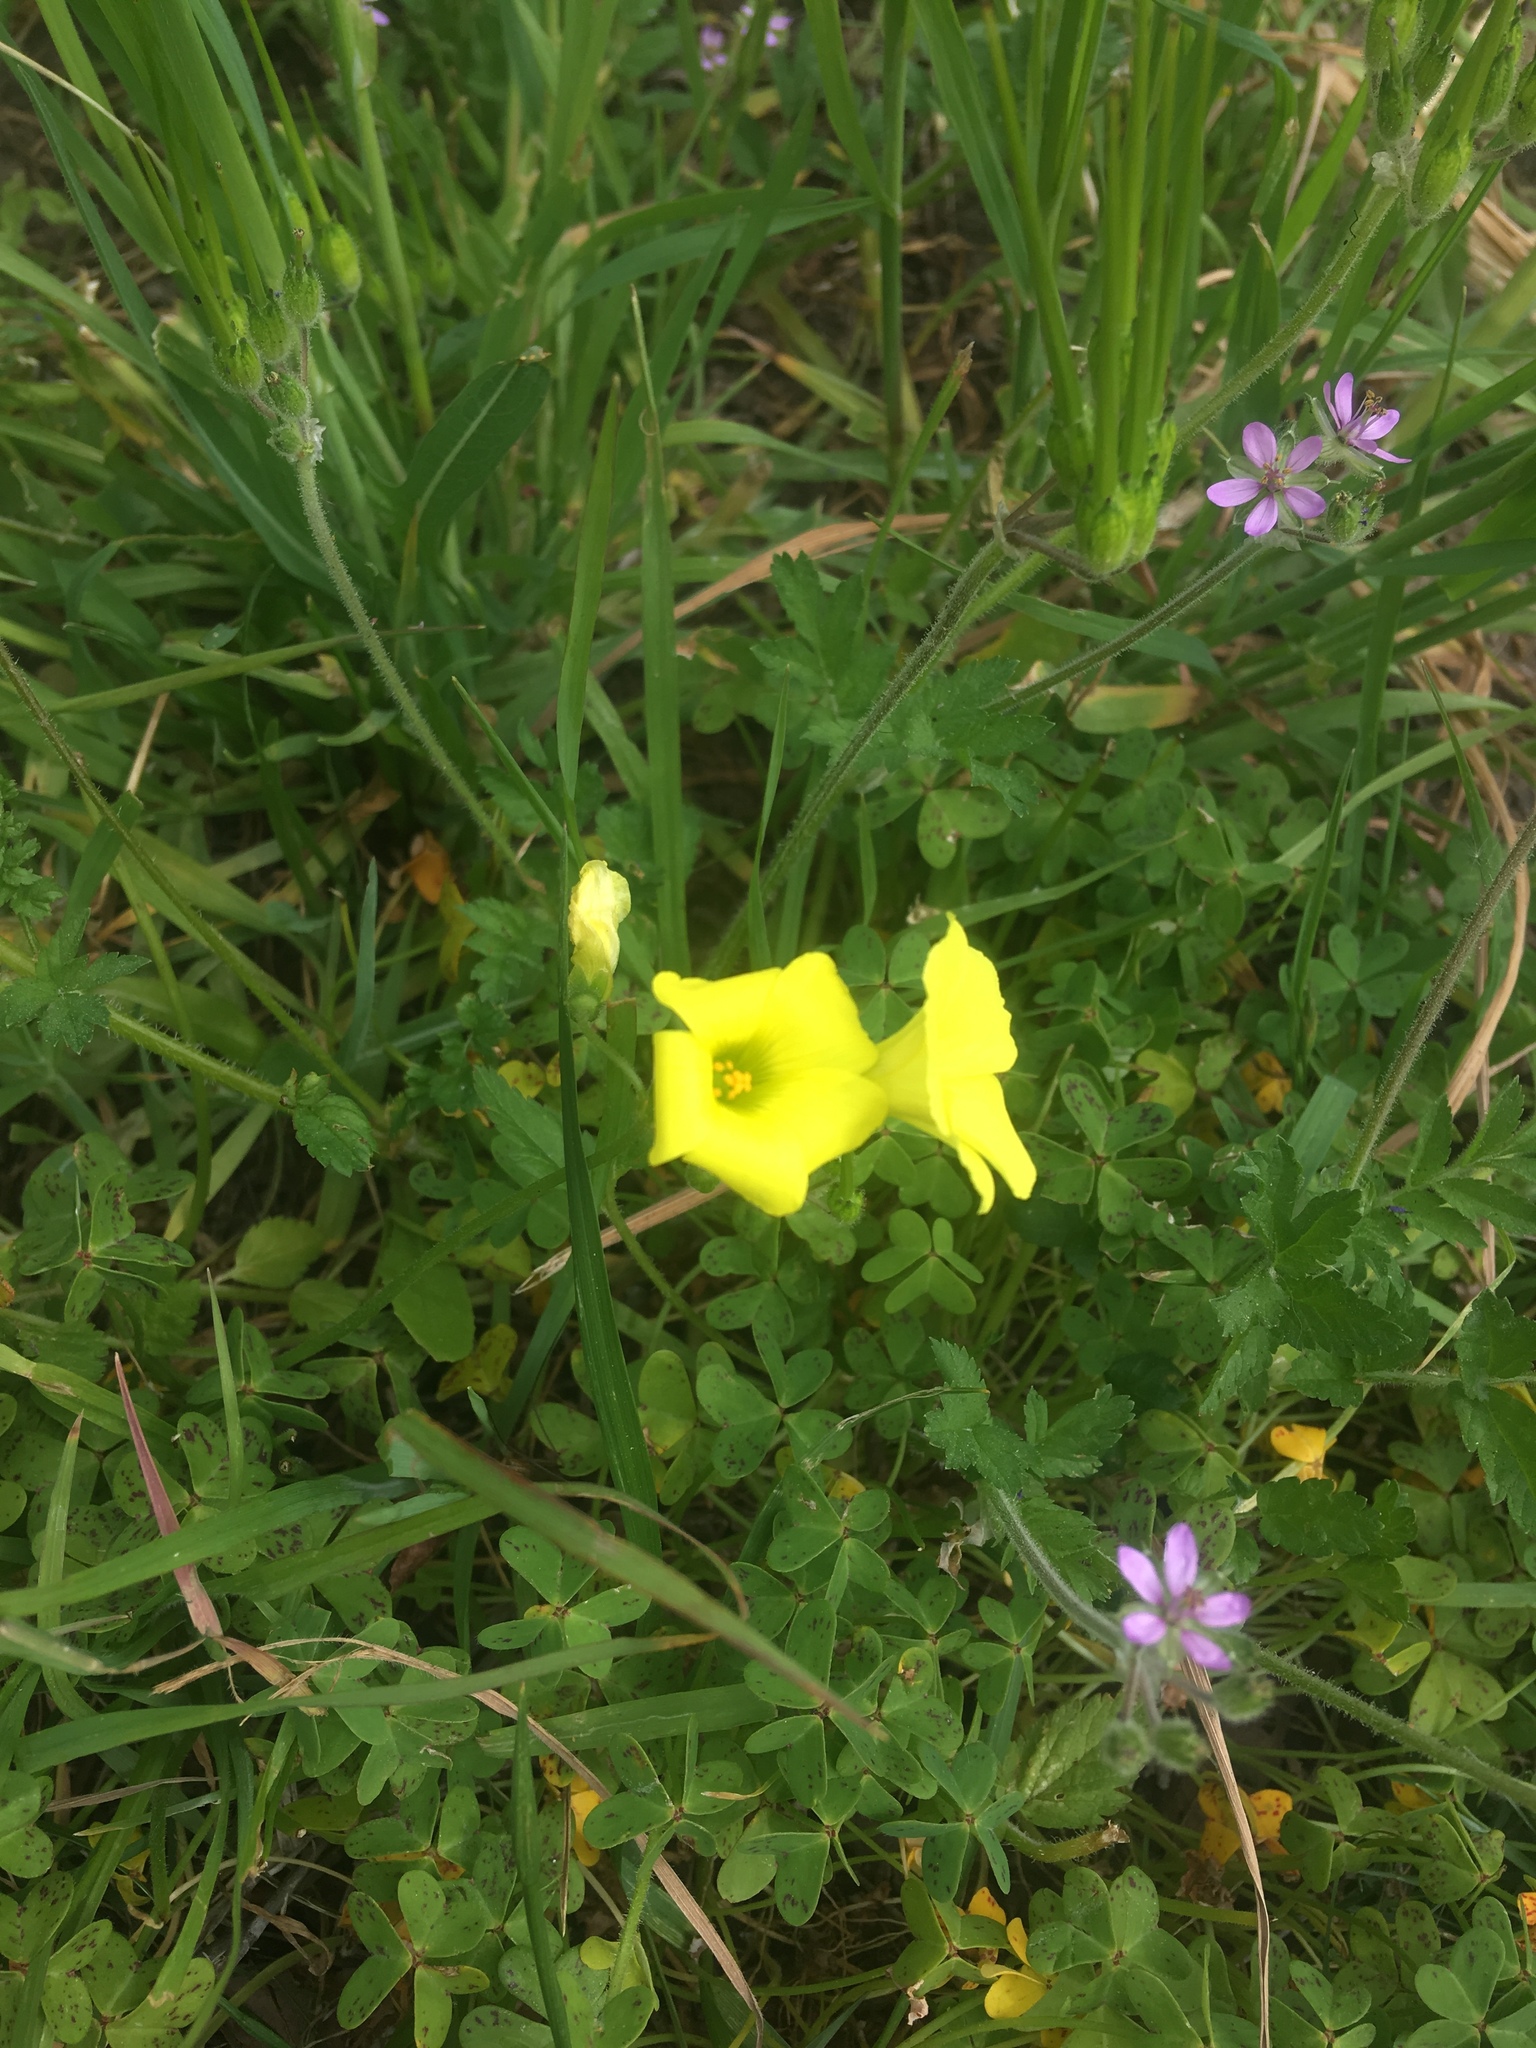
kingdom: Plantae
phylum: Tracheophyta
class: Magnoliopsida
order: Oxalidales
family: Oxalidaceae
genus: Oxalis
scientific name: Oxalis pes-caprae
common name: Bermuda-buttercup
